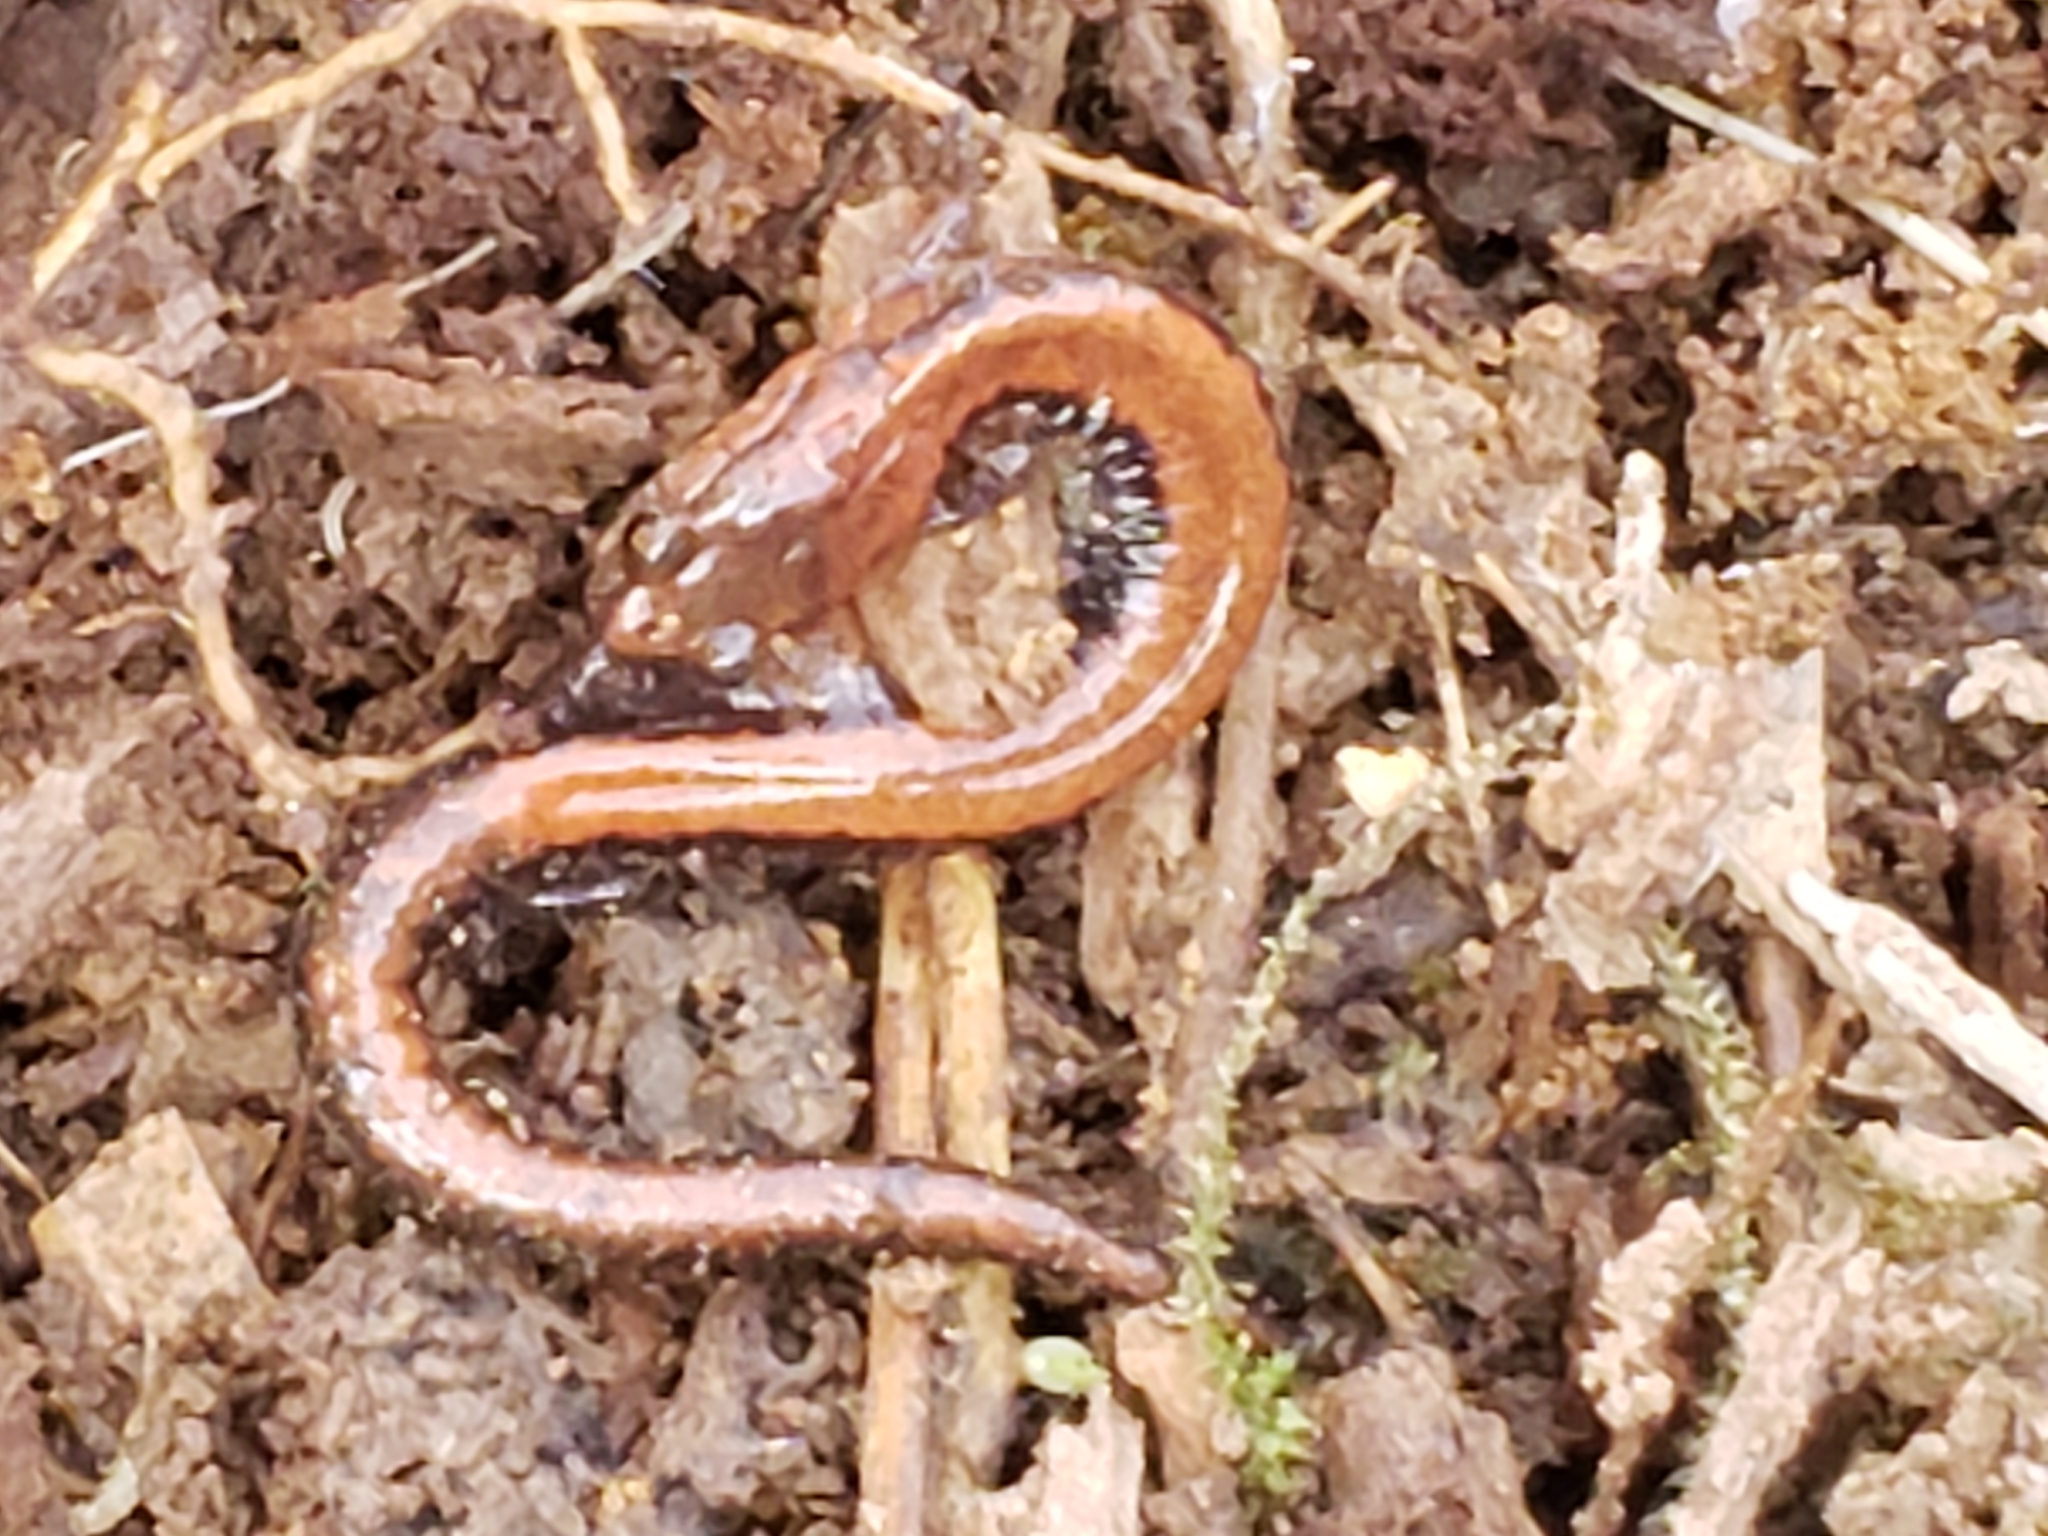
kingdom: Animalia
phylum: Chordata
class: Amphibia
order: Caudata
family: Plethodontidae
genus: Plethodon
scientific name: Plethodon cinereus
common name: Redback salamander
